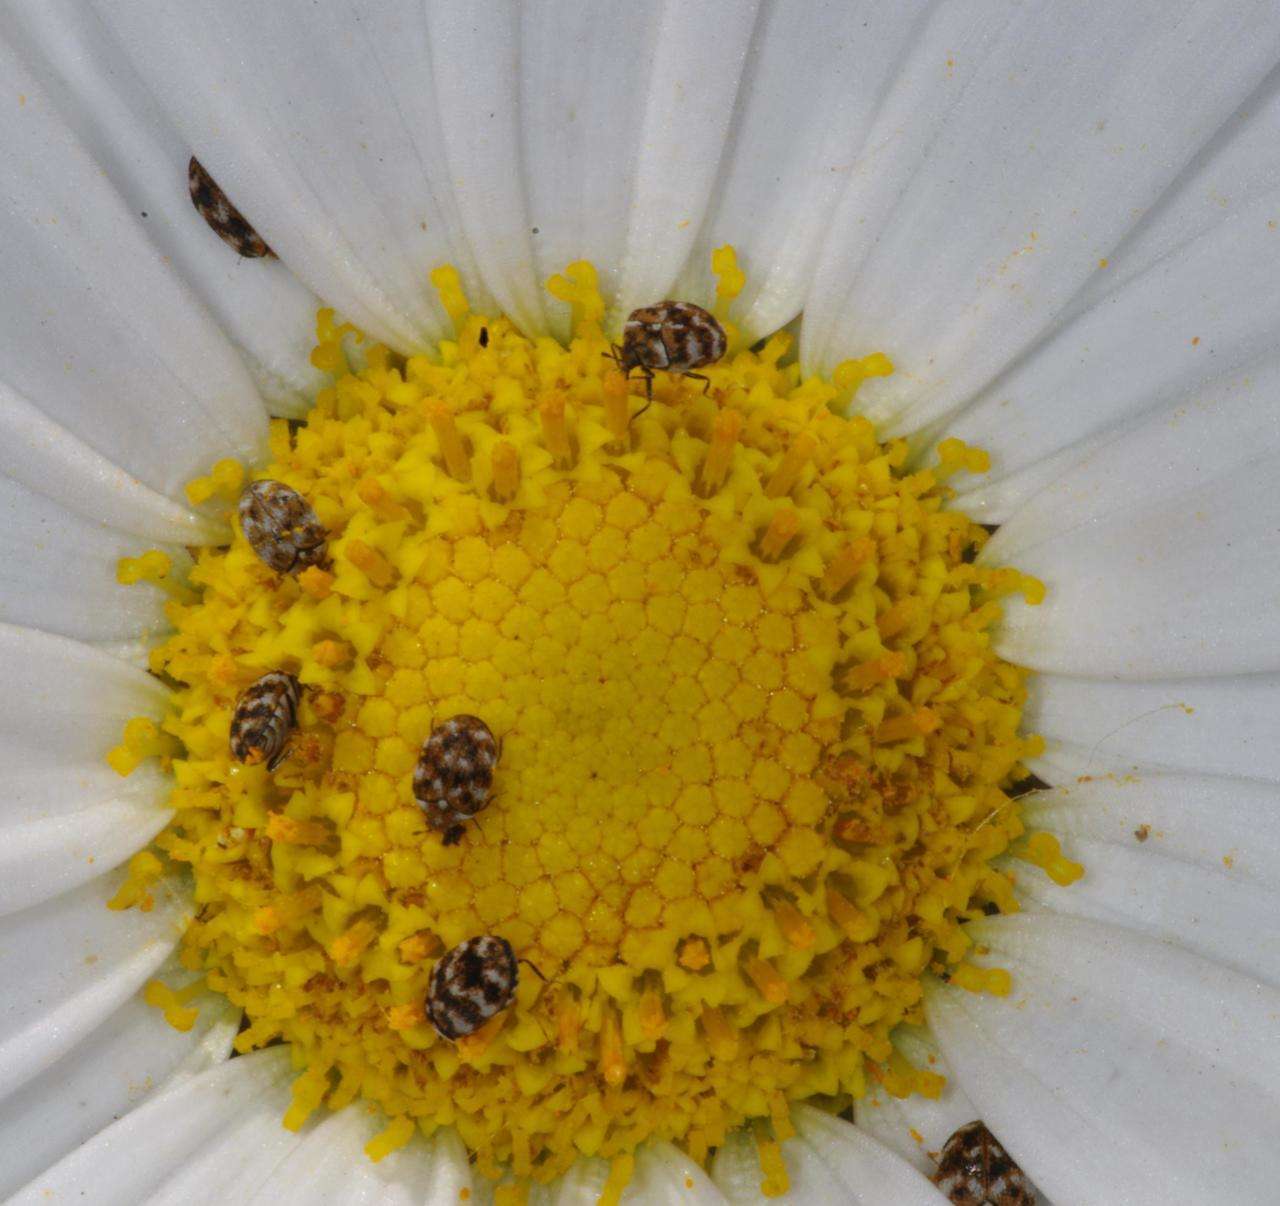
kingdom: Animalia
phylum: Arthropoda
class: Insecta
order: Coleoptera
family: Dermestidae
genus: Anthrenus
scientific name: Anthrenus verbasci
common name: Varied carpet beetle
